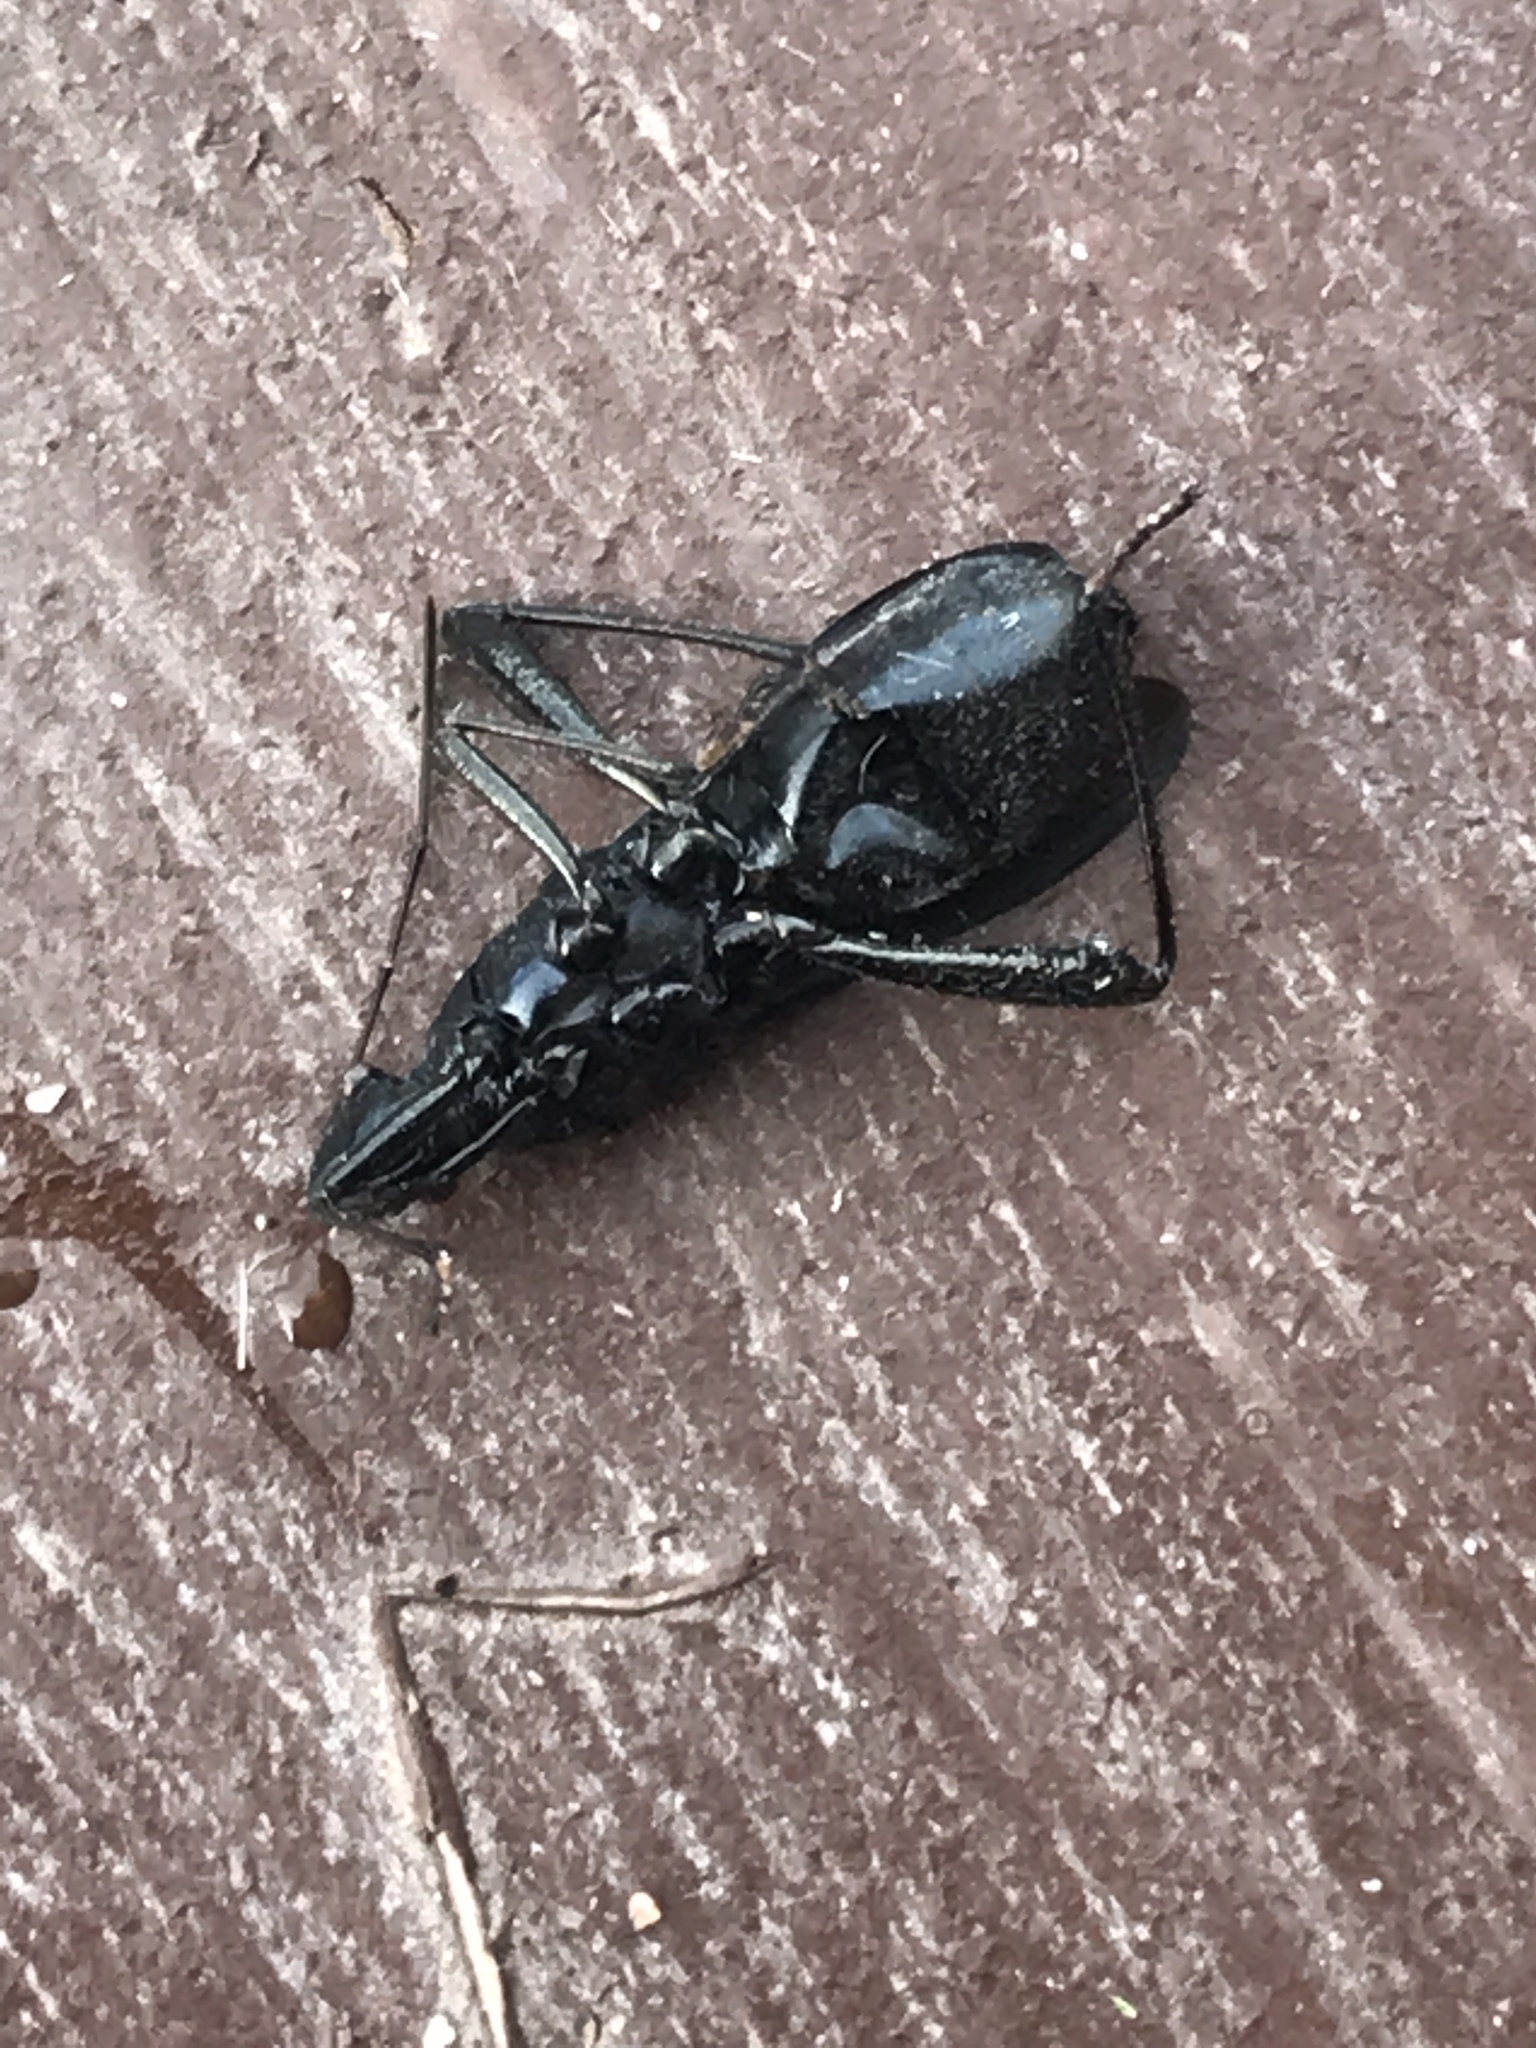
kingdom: Animalia
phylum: Arthropoda
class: Insecta
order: Hemiptera
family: Alydidae
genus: Alydus
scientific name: Alydus eurinus
